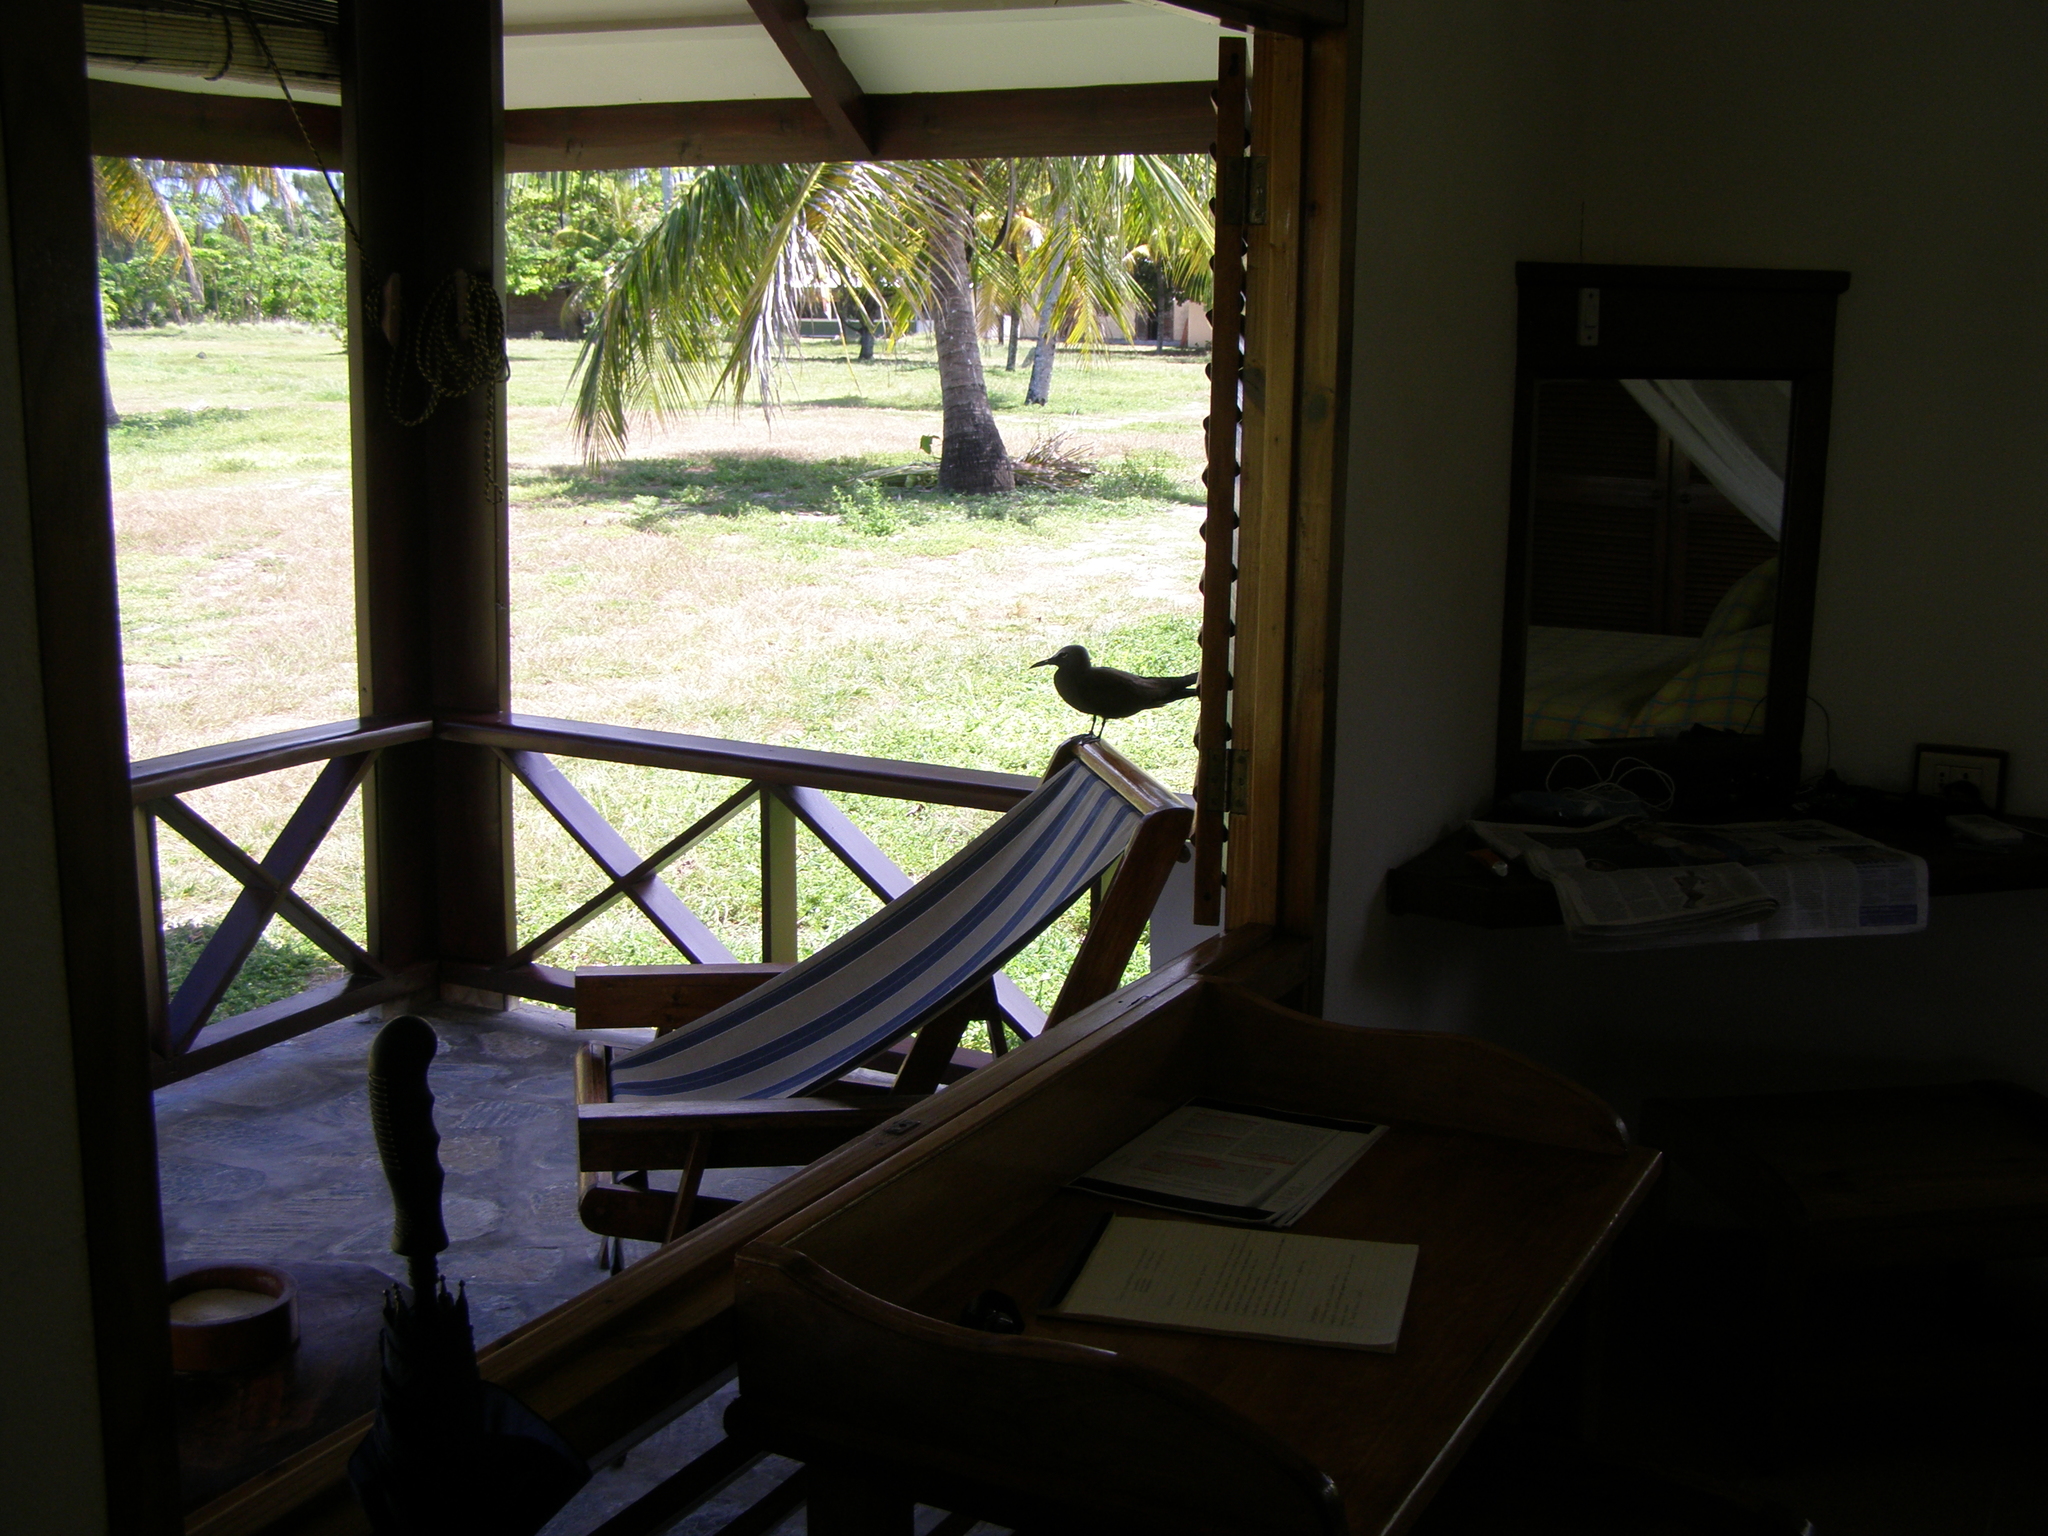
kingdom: Animalia
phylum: Chordata
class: Aves
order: Charadriiformes
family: Laridae
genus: Anous
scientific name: Anous stolidus
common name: Brown noddy
